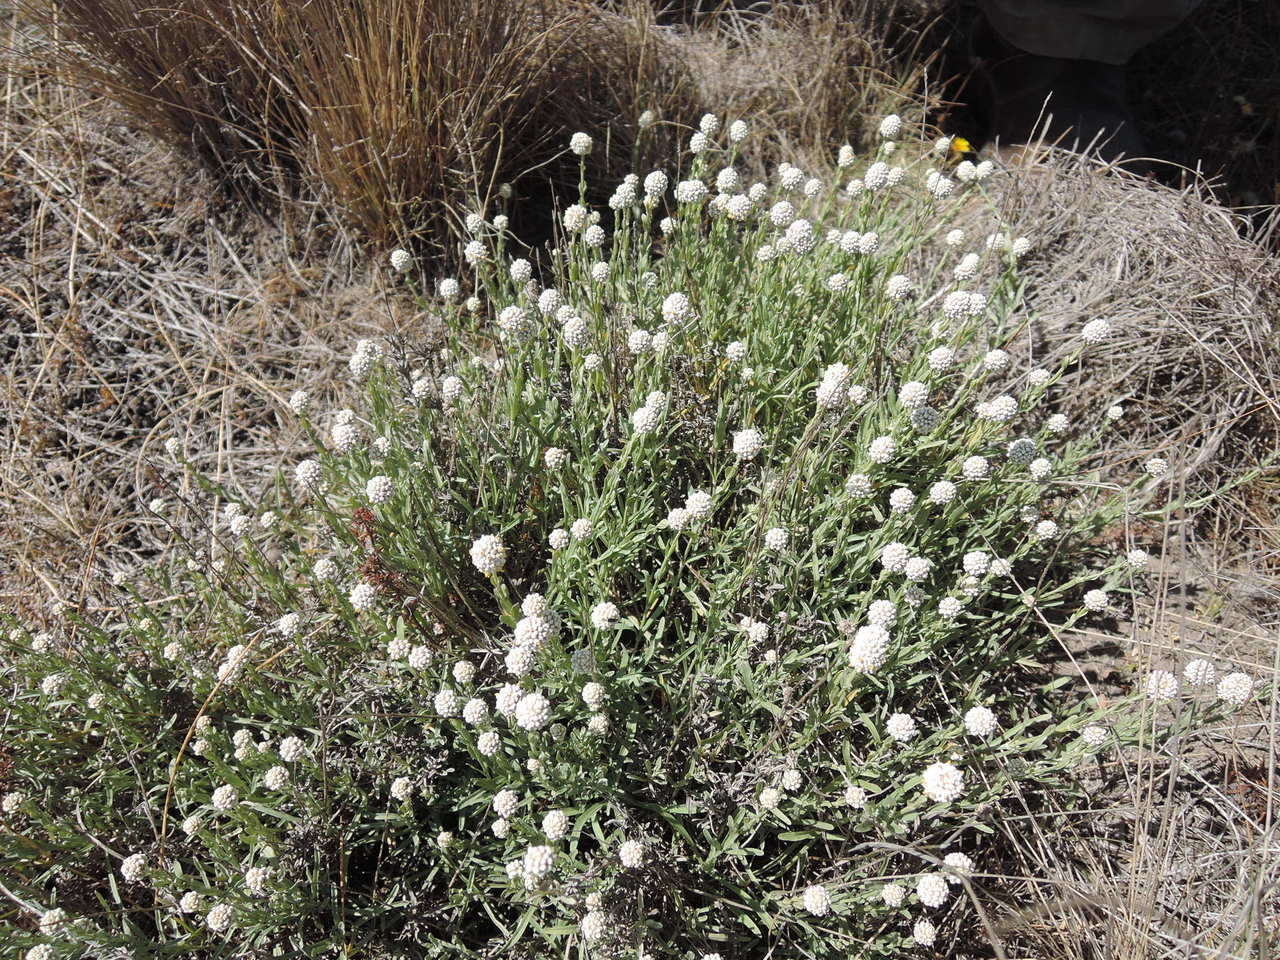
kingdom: Plantae
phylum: Tracheophyta
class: Magnoliopsida
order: Asterales
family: Asteraceae
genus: Calocephalus
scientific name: Calocephalus lacteus
